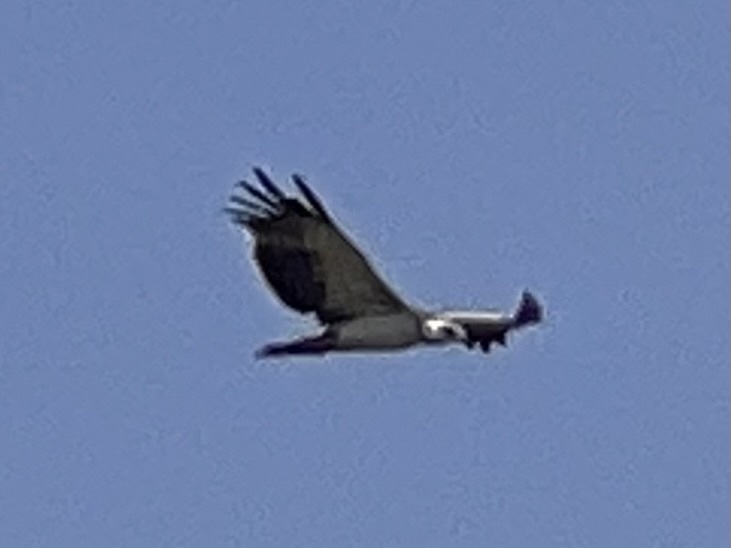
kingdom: Animalia
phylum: Chordata
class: Aves
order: Accipitriformes
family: Accipitridae
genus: Polemaetus
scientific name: Polemaetus bellicosus
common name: Martial eagle
